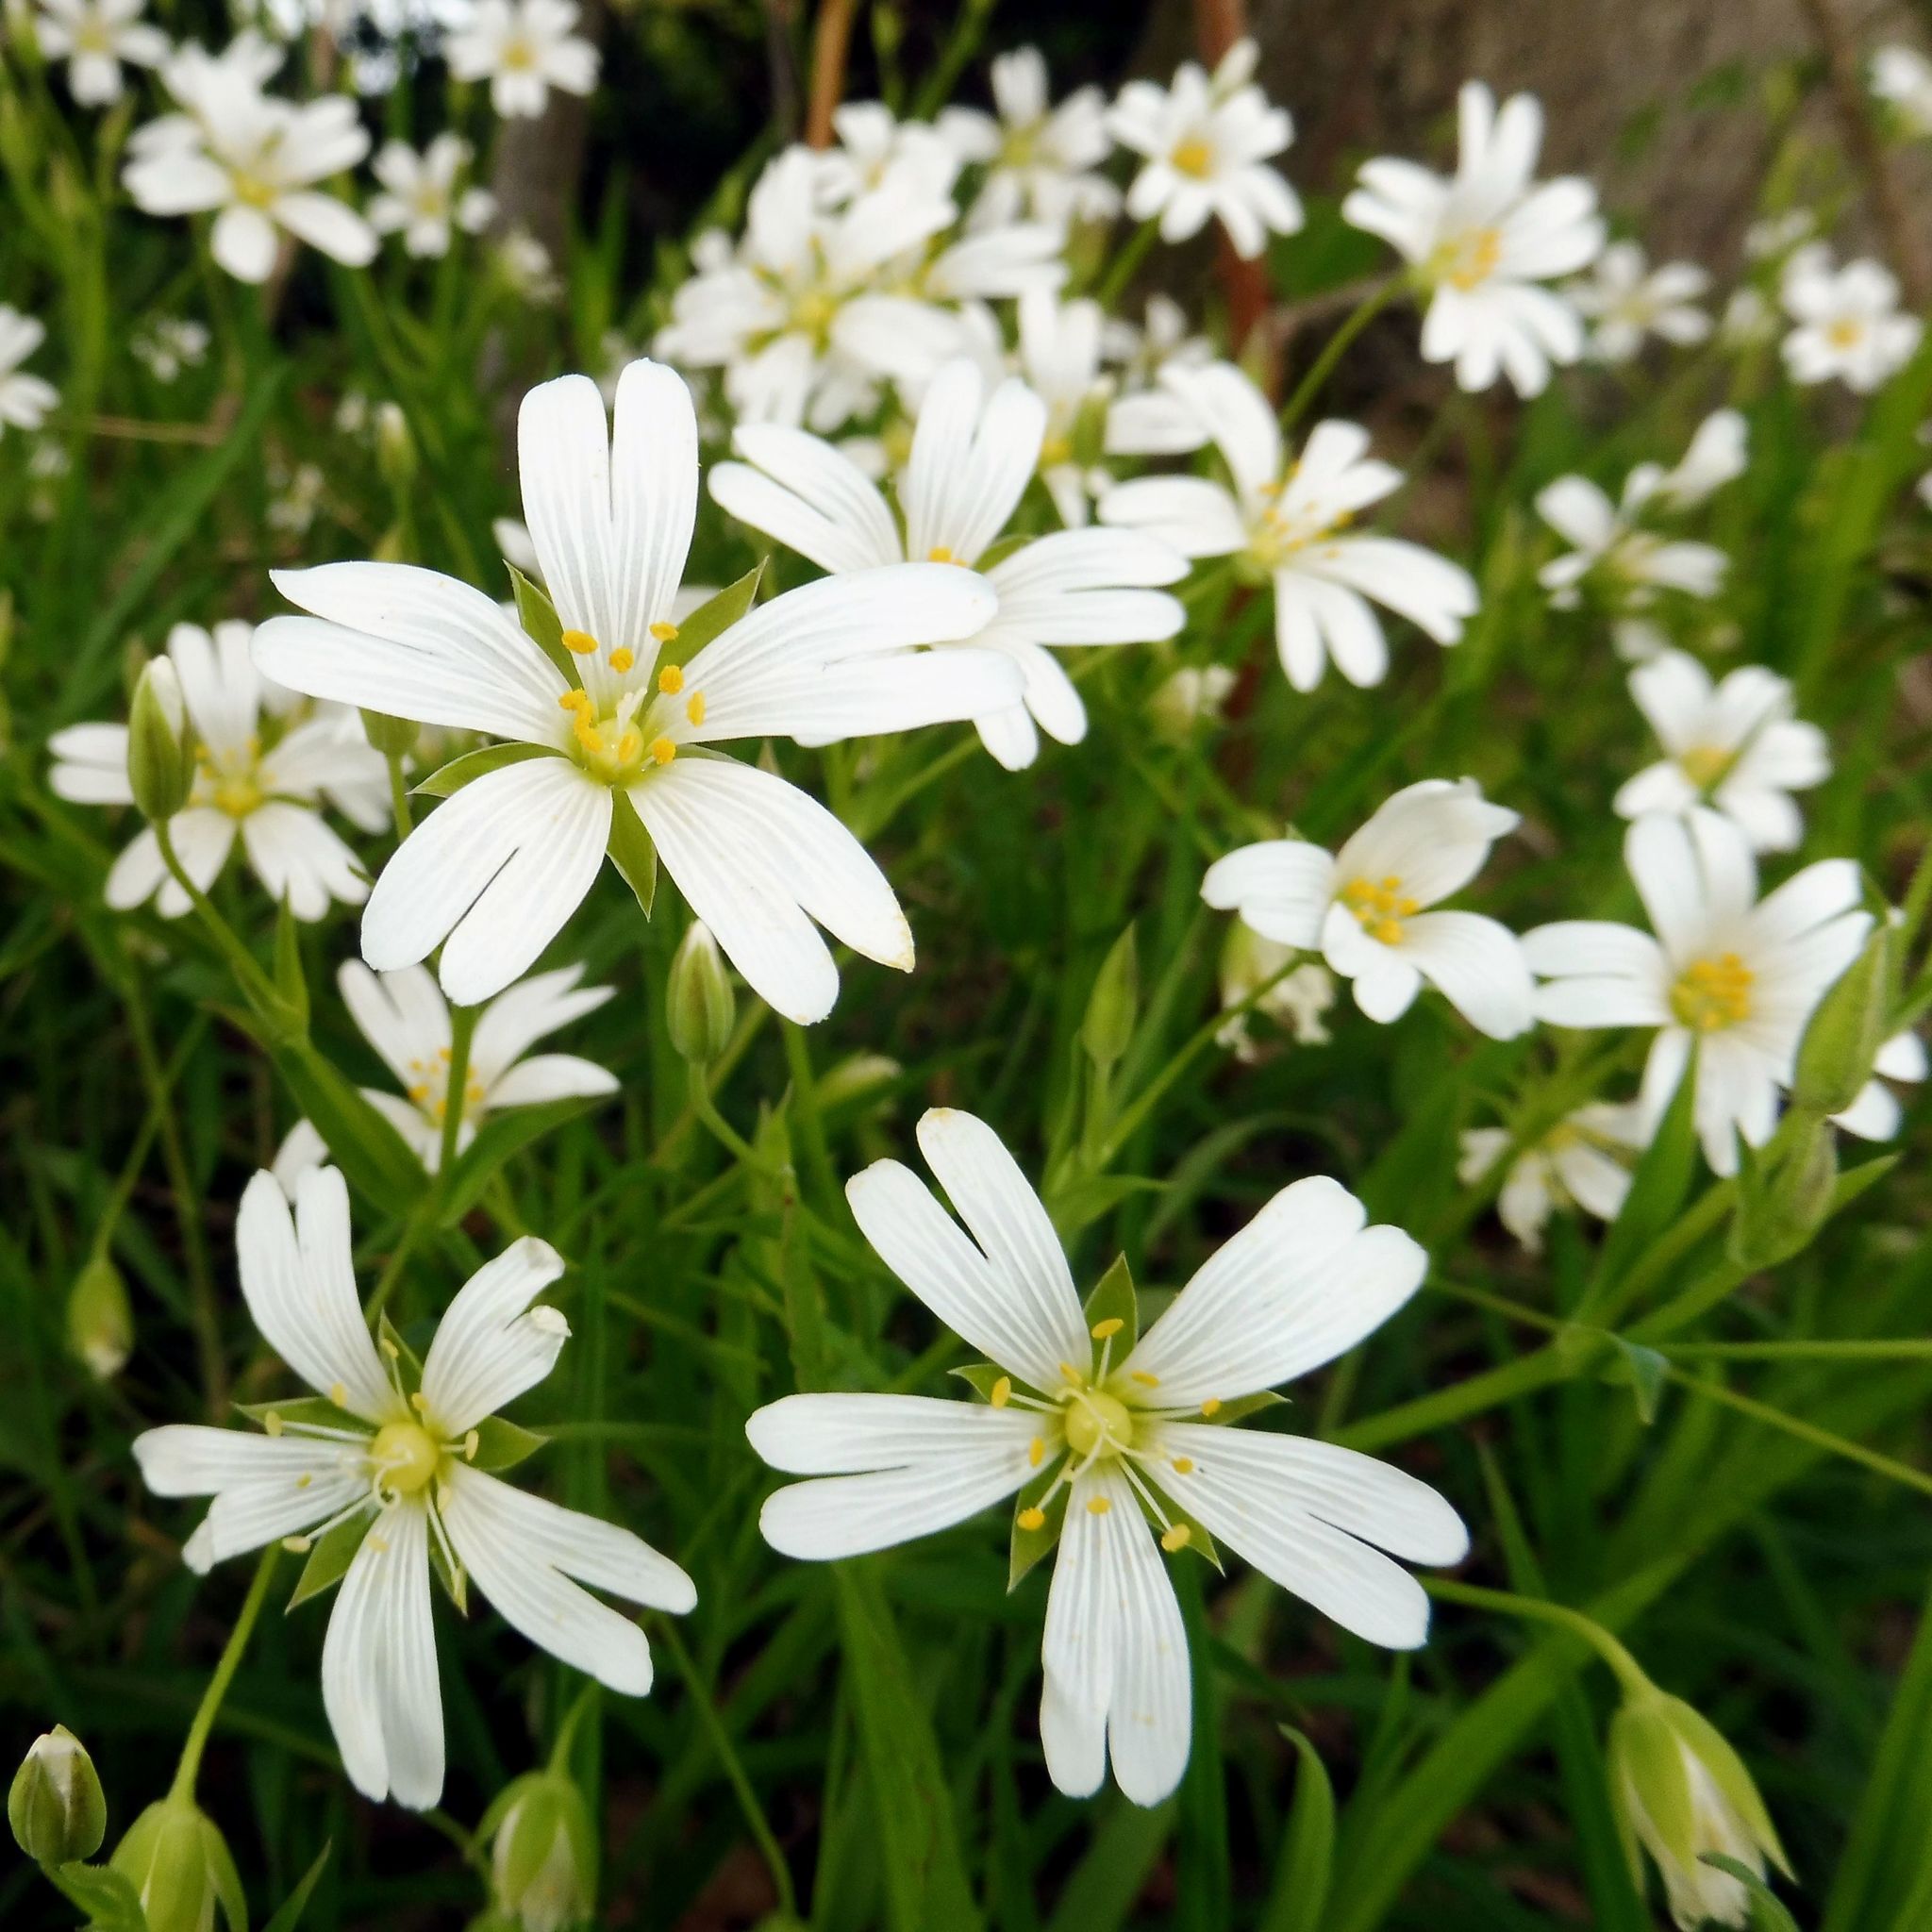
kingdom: Plantae
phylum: Tracheophyta
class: Magnoliopsida
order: Caryophyllales
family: Caryophyllaceae
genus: Rabelera
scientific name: Rabelera holostea
